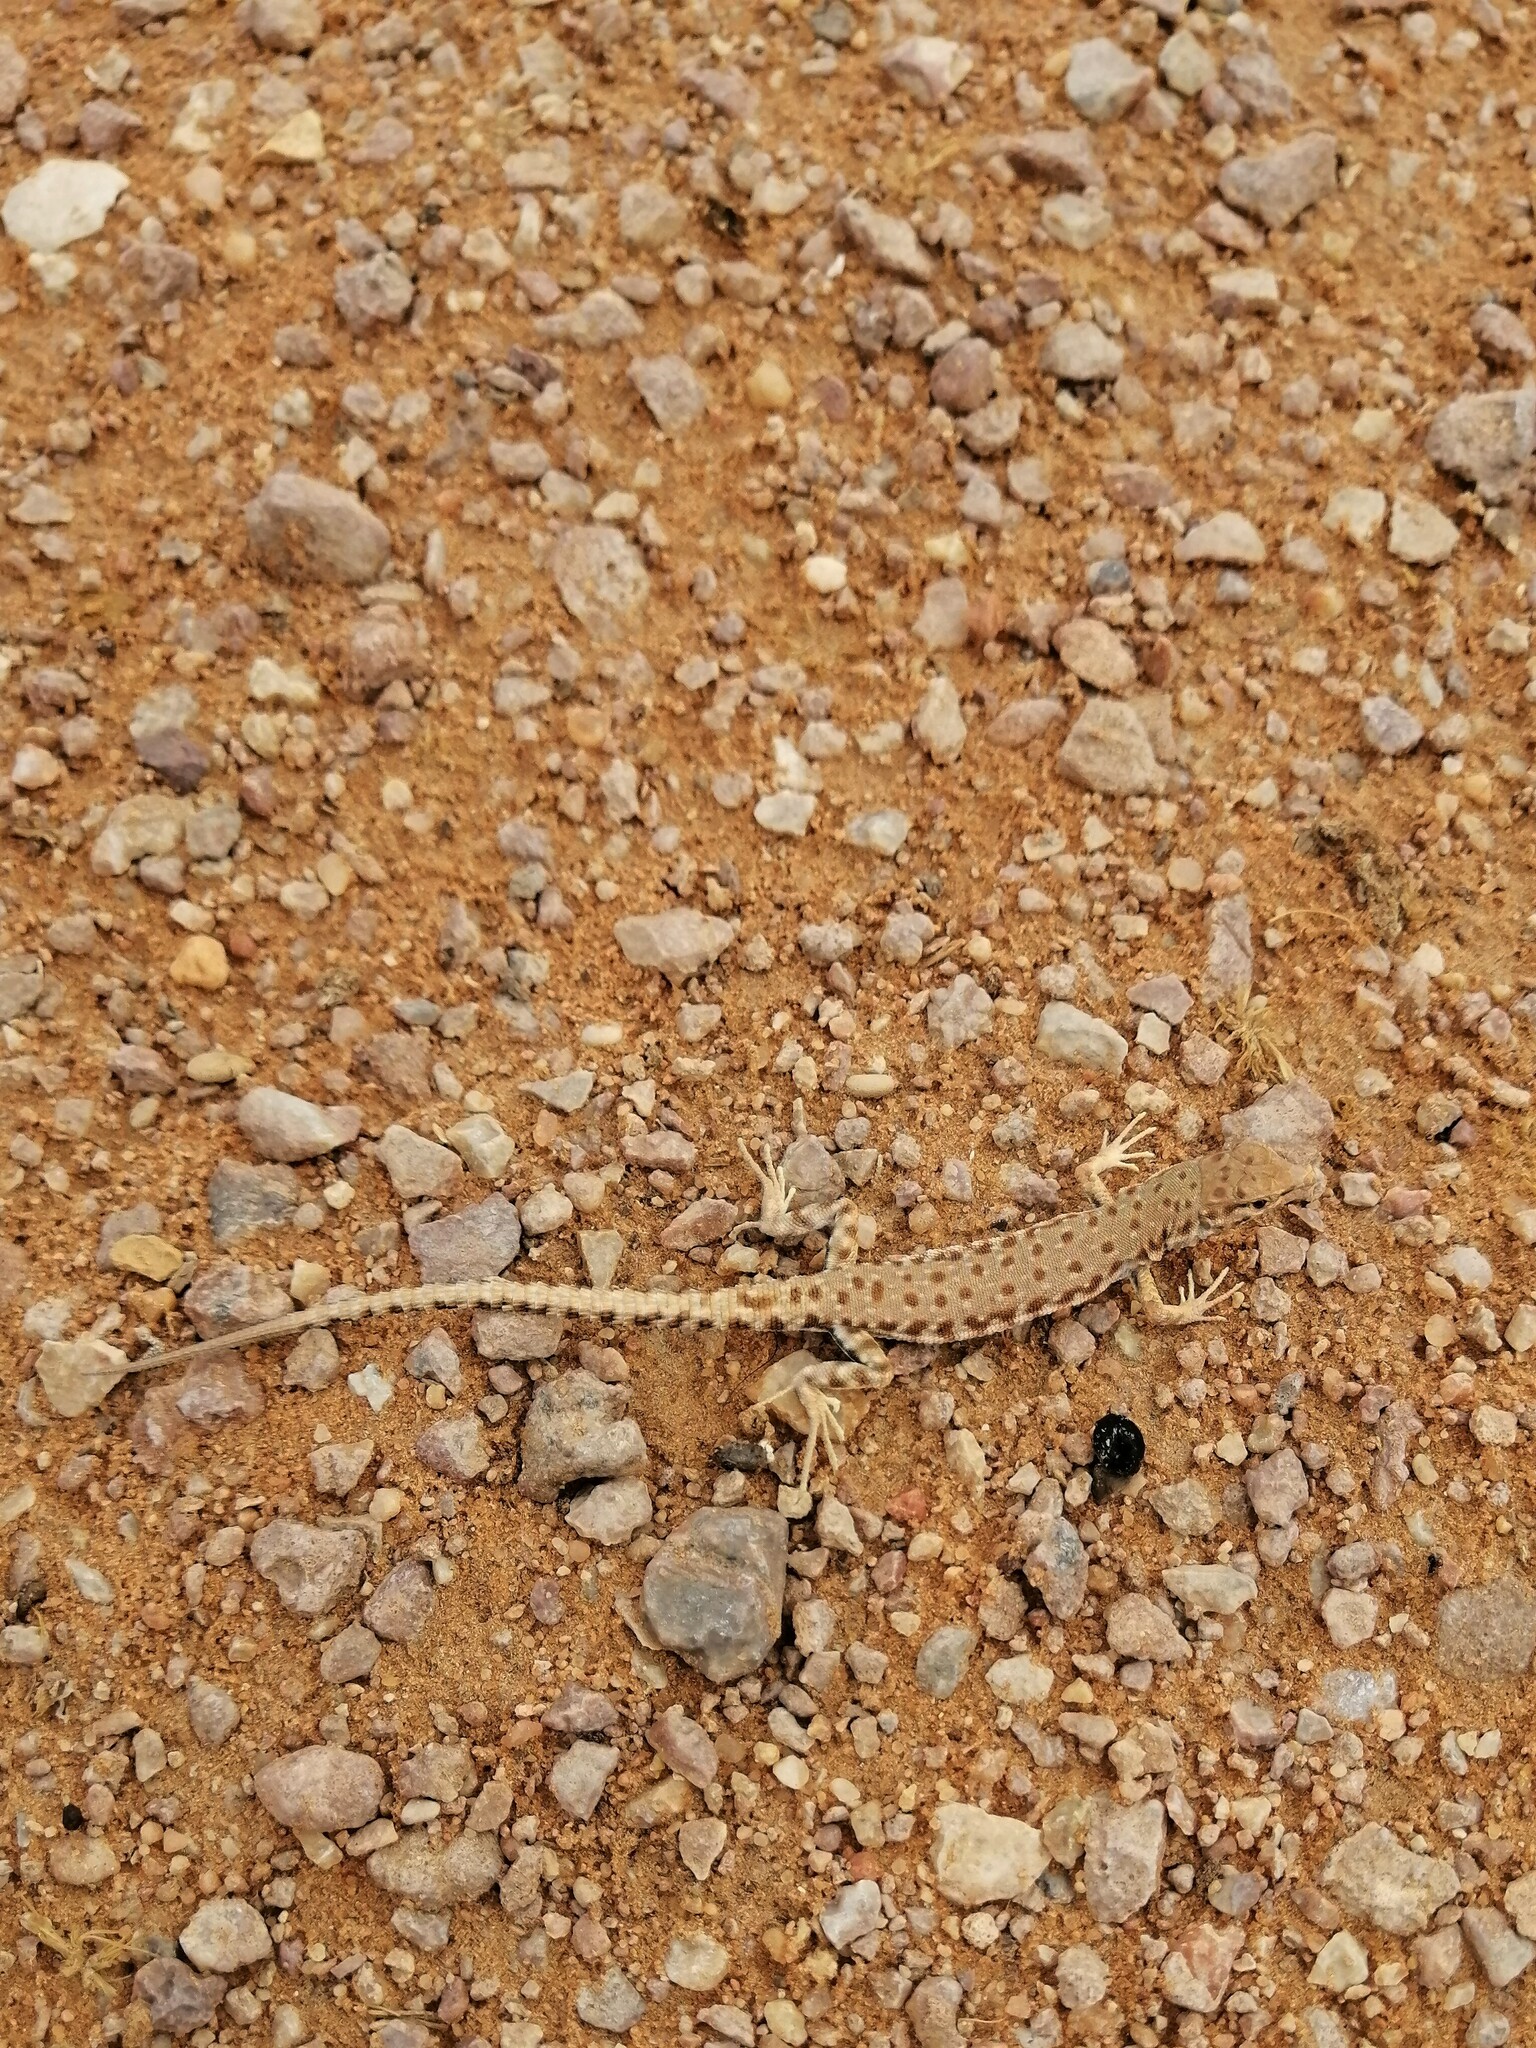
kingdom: Animalia
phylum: Chordata
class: Squamata
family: Lacertidae
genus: Mesalina
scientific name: Mesalina brevirostris
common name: Blanford's short-nosed desert lizard
